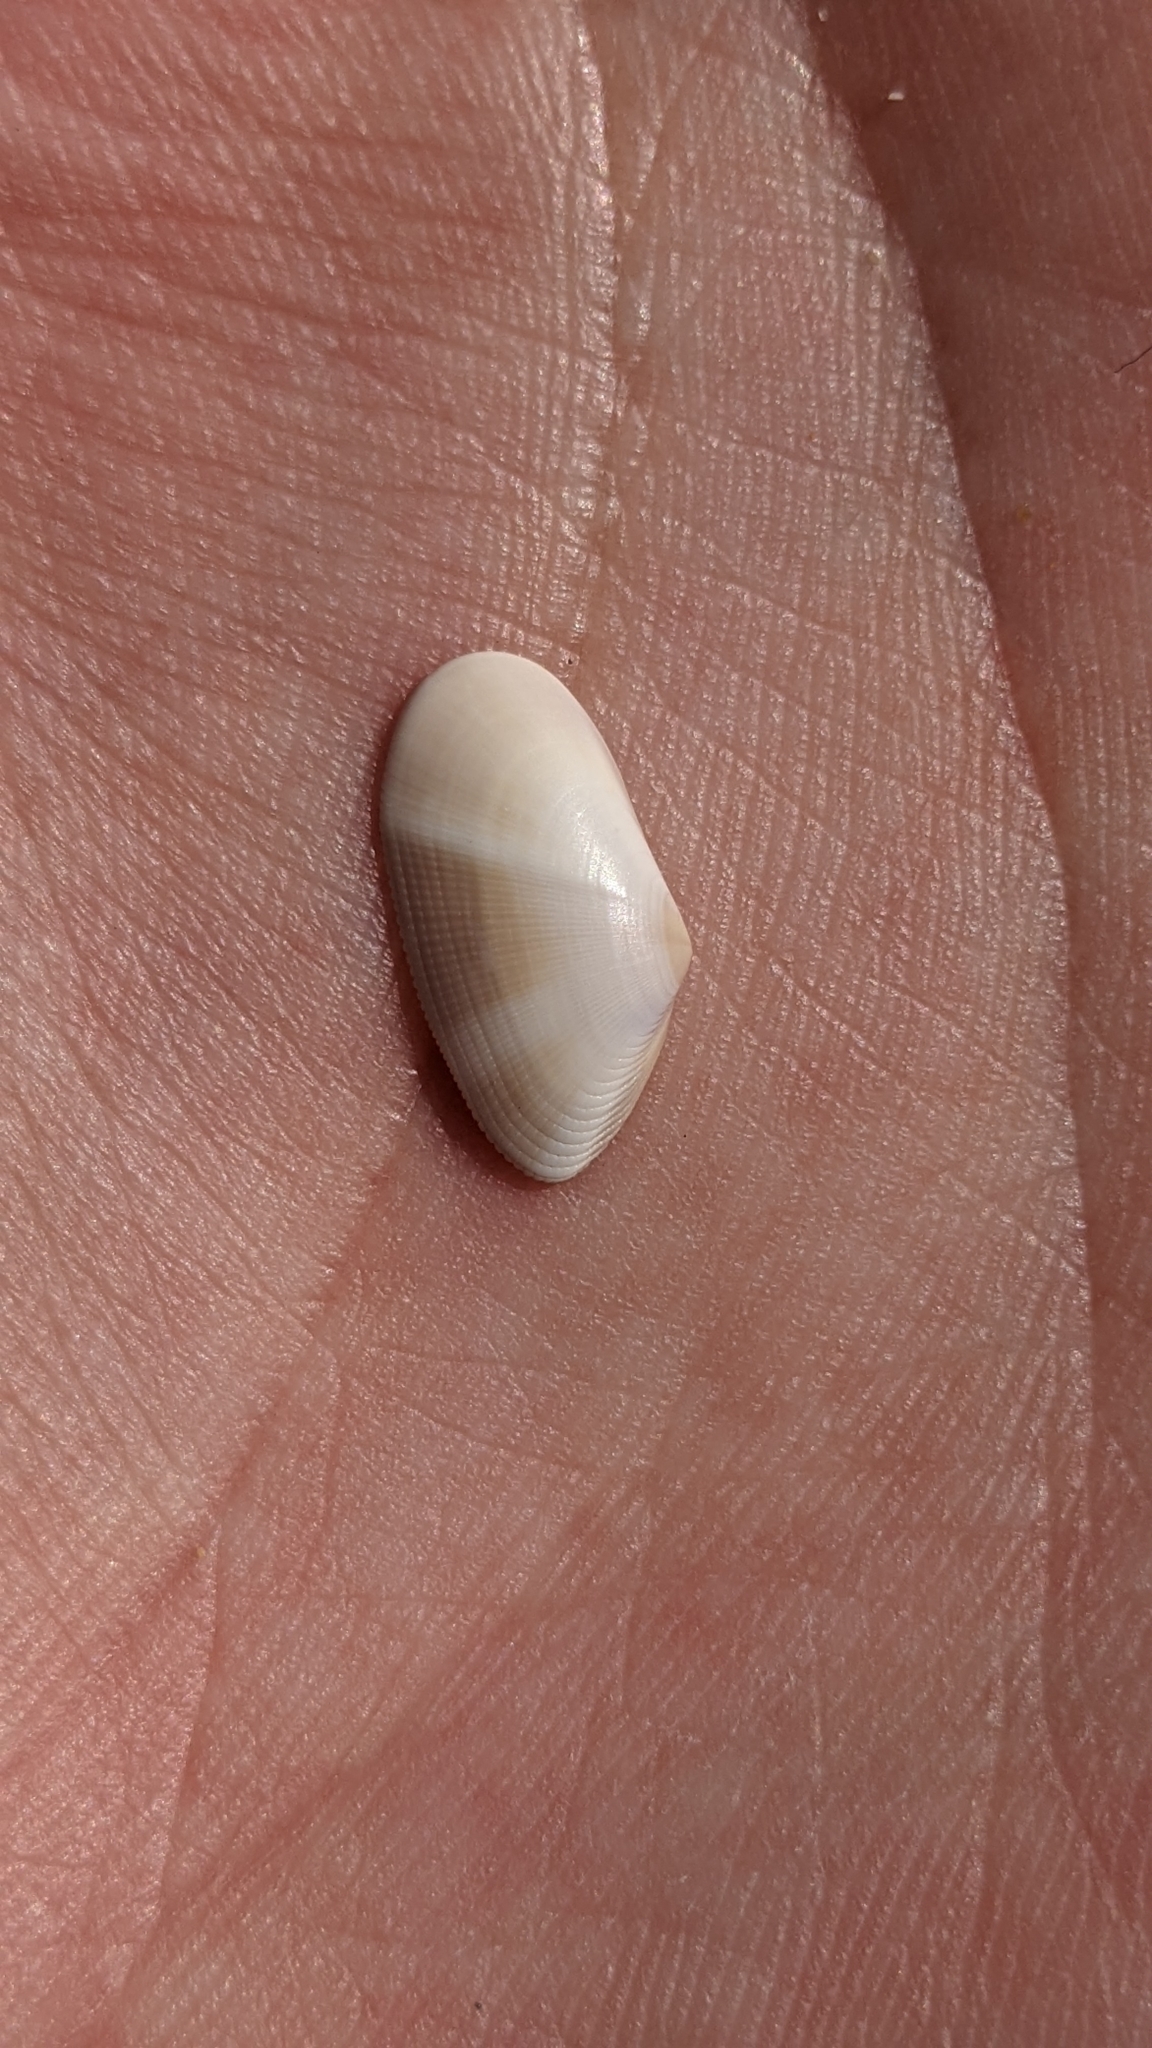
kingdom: Animalia
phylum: Mollusca
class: Bivalvia
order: Cardiida
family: Donacidae
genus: Donax
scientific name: Donax semistriatus
